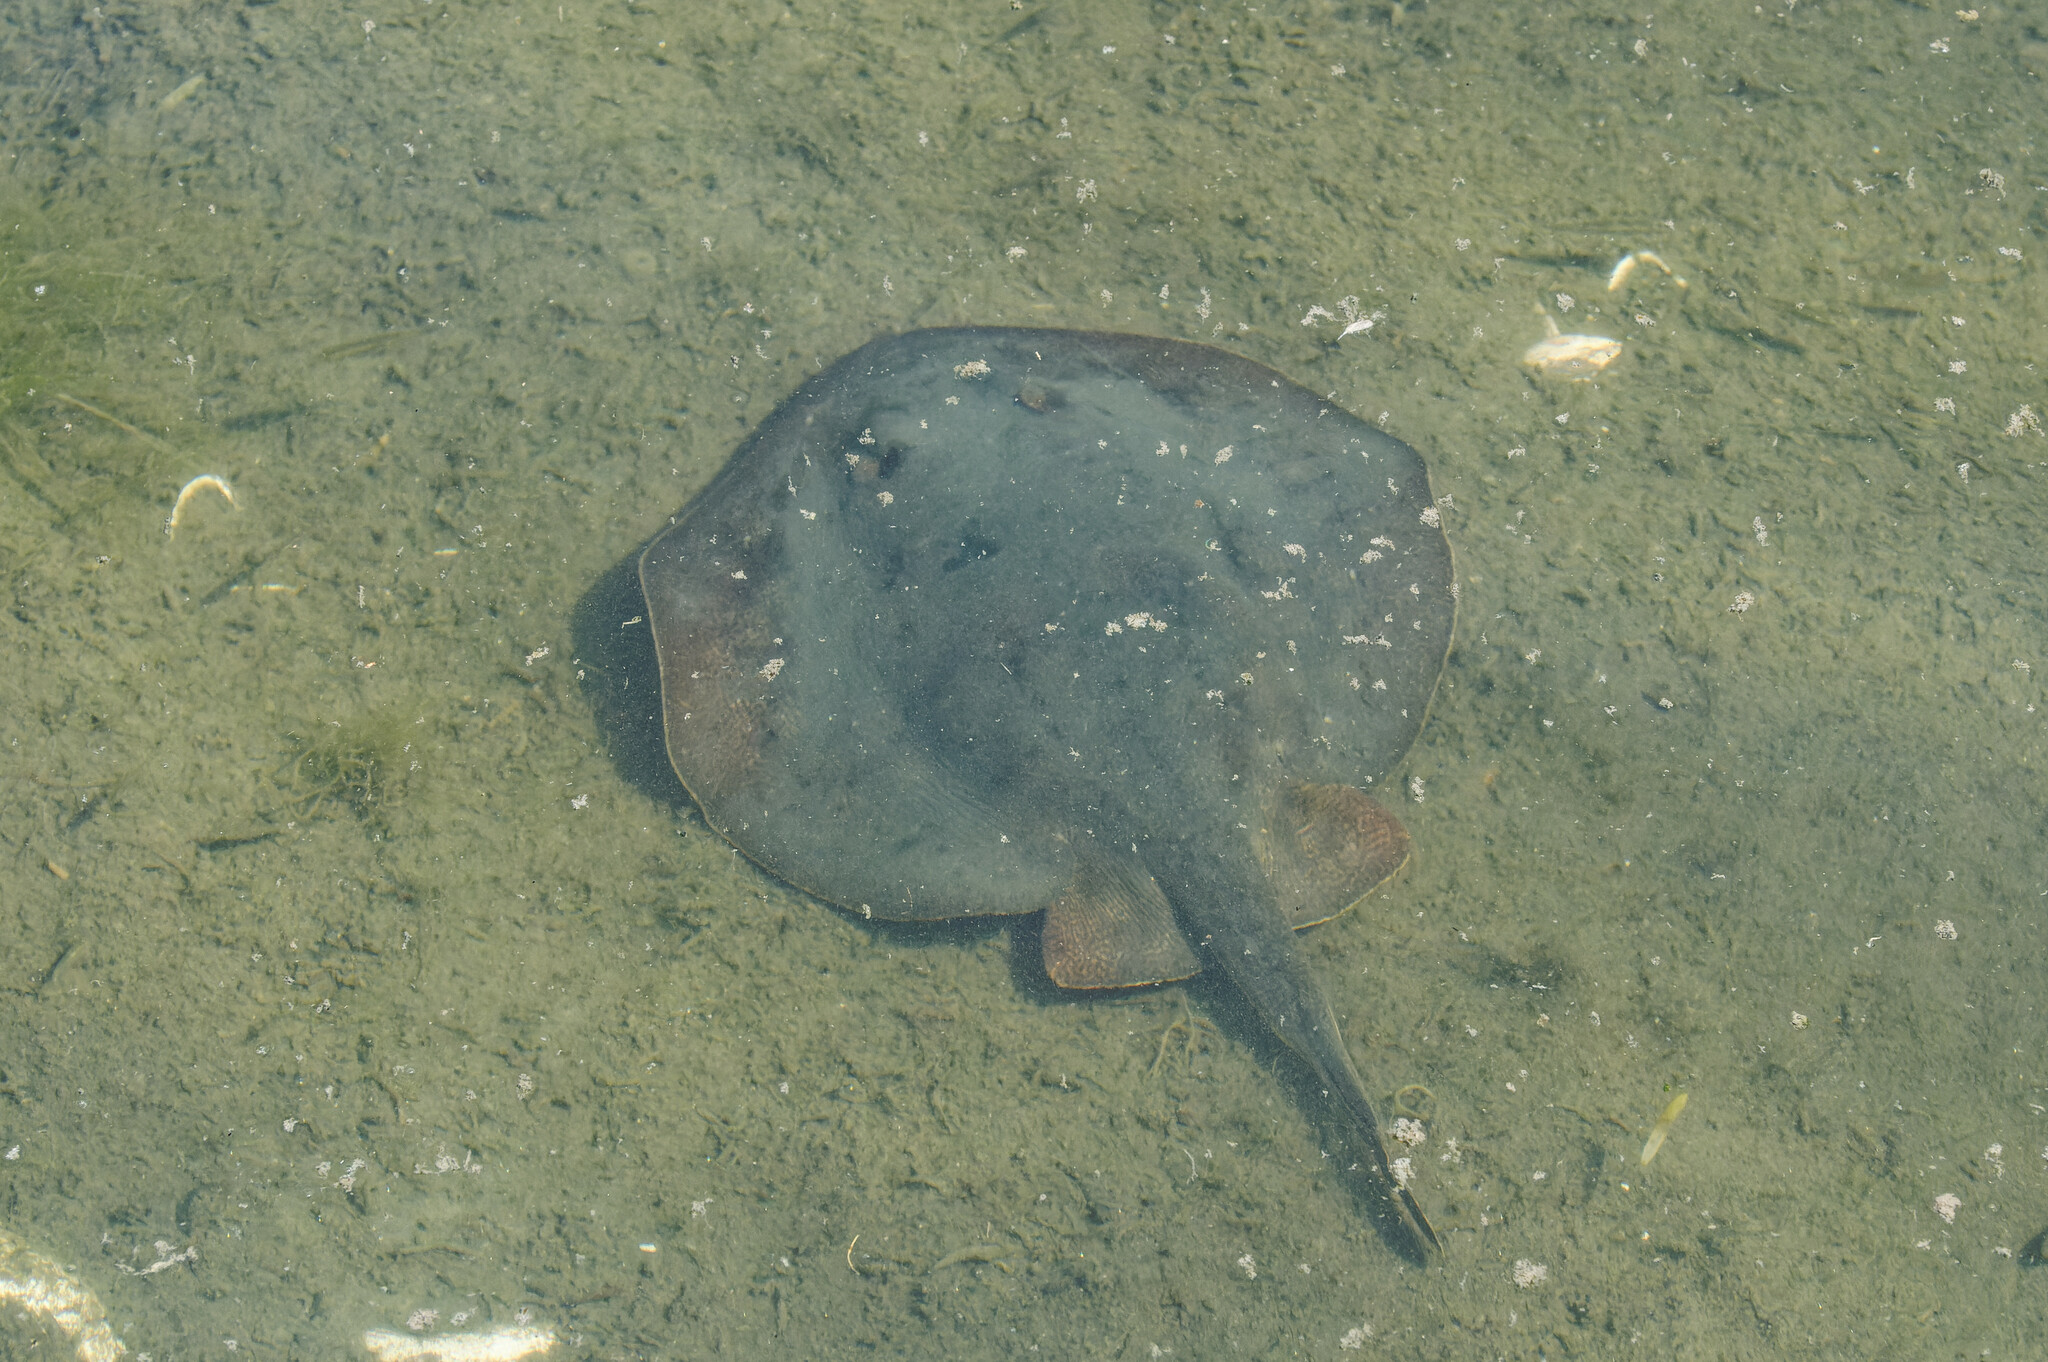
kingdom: Animalia
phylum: Chordata
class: Elasmobranchii
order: Myliobatiformes
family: Urolophidae
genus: Urolophus
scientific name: Urolophus halleri
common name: Round stingray
